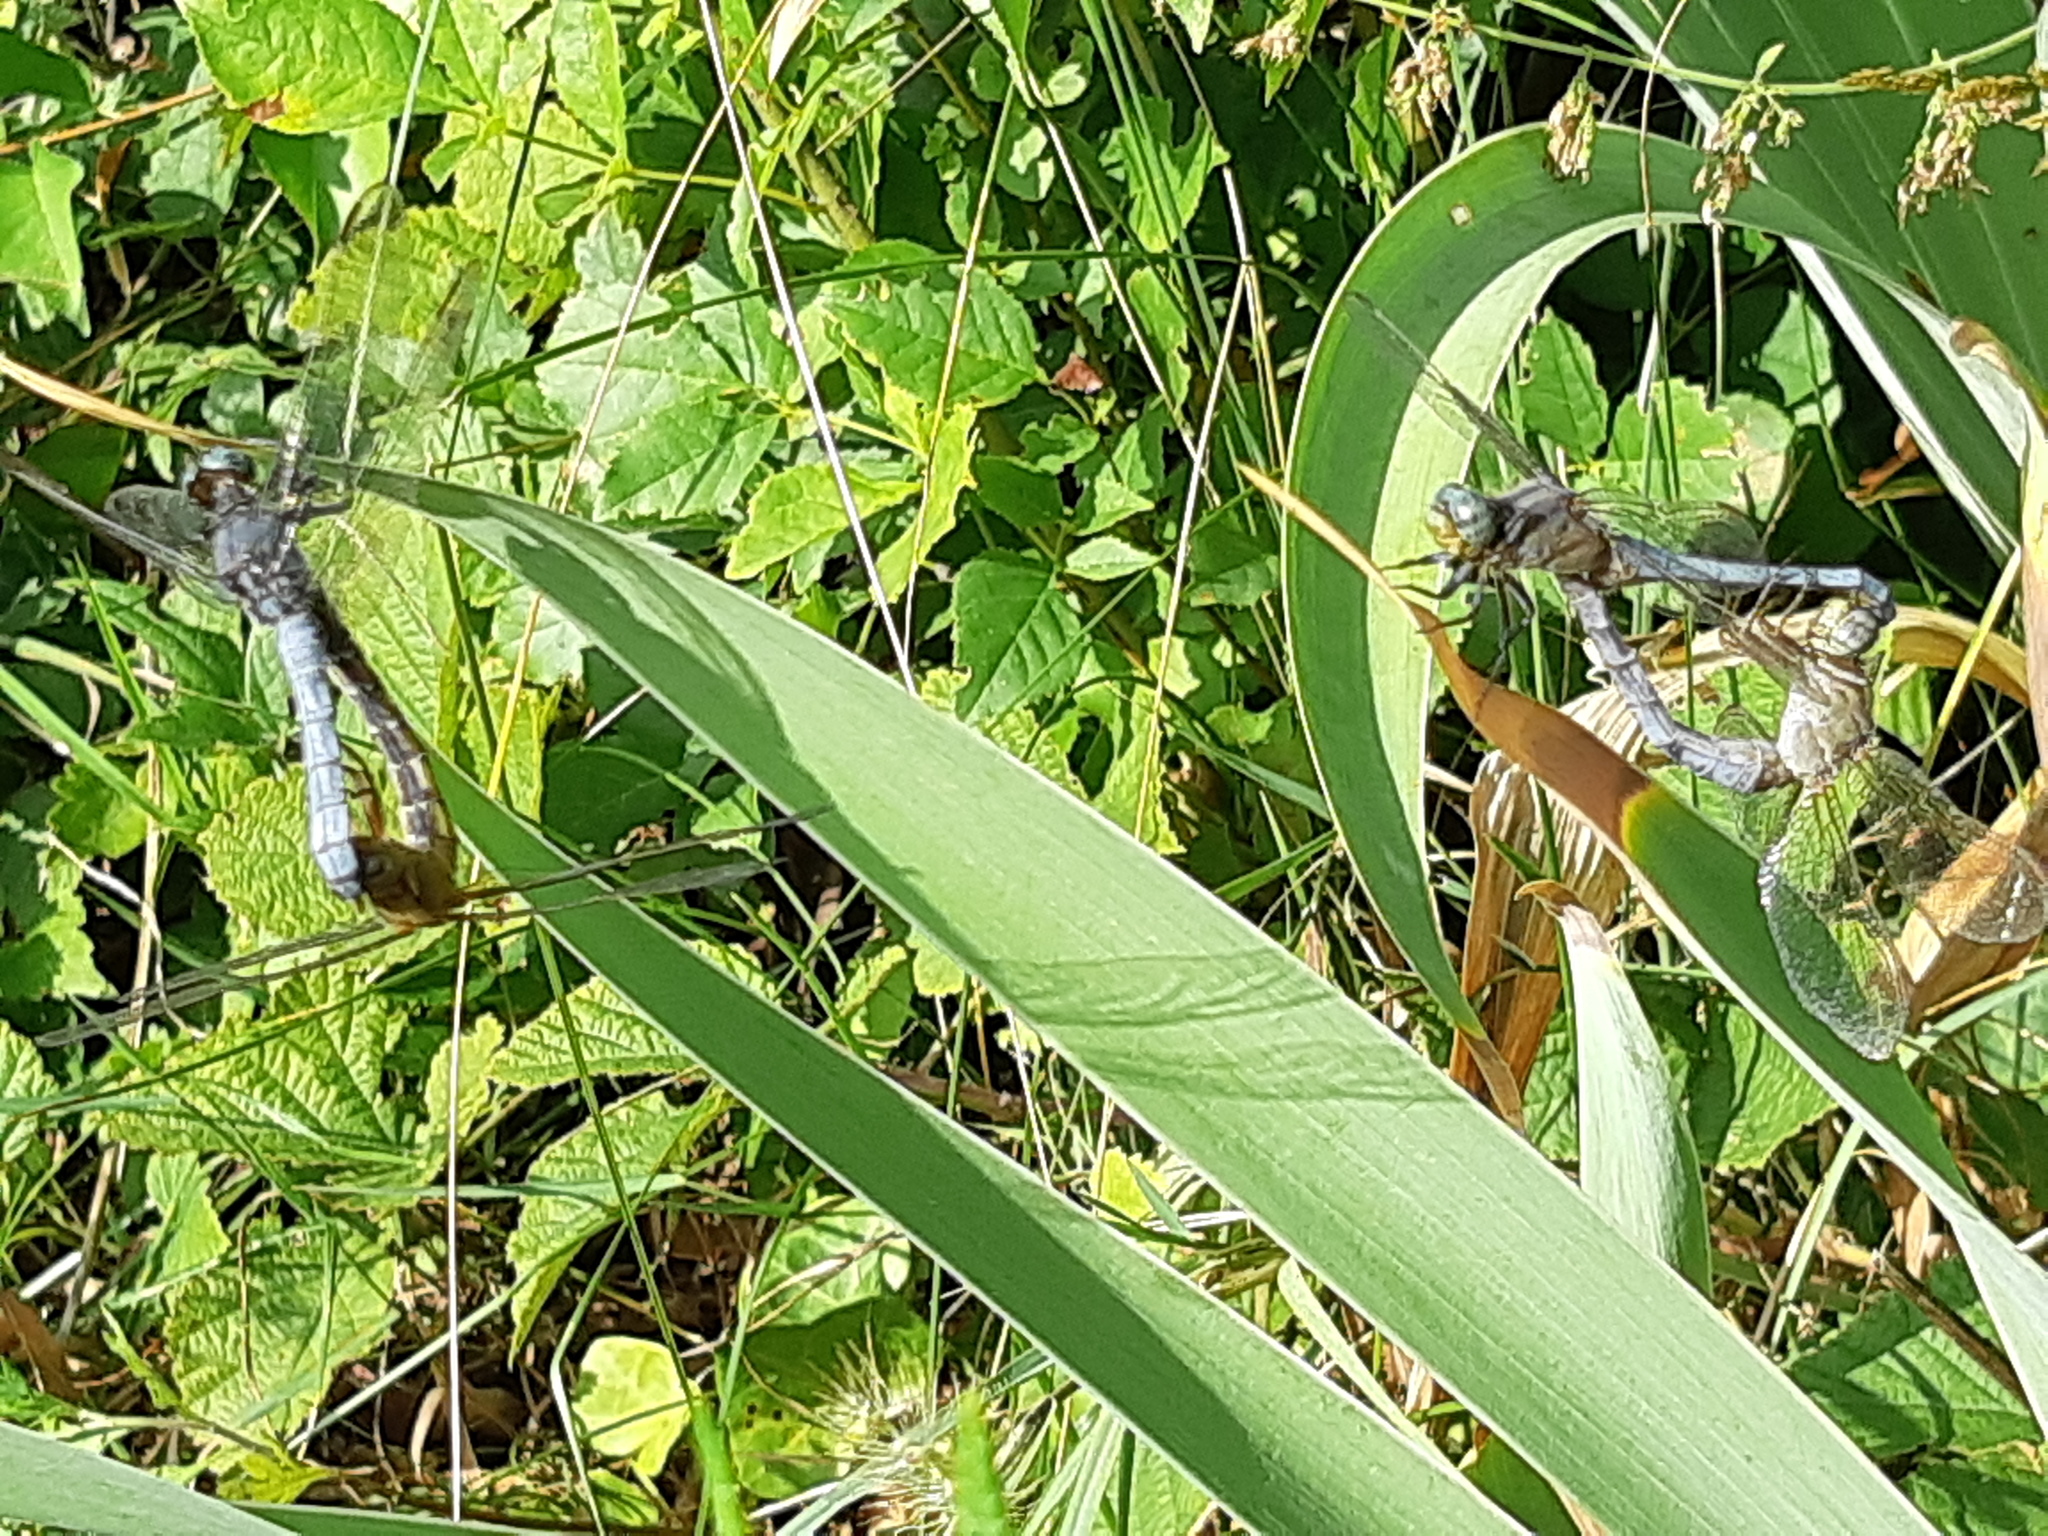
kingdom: Animalia
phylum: Arthropoda
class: Insecta
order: Odonata
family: Libellulidae
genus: Orthetrum
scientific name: Orthetrum coerulescens
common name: Keeled skimmer
